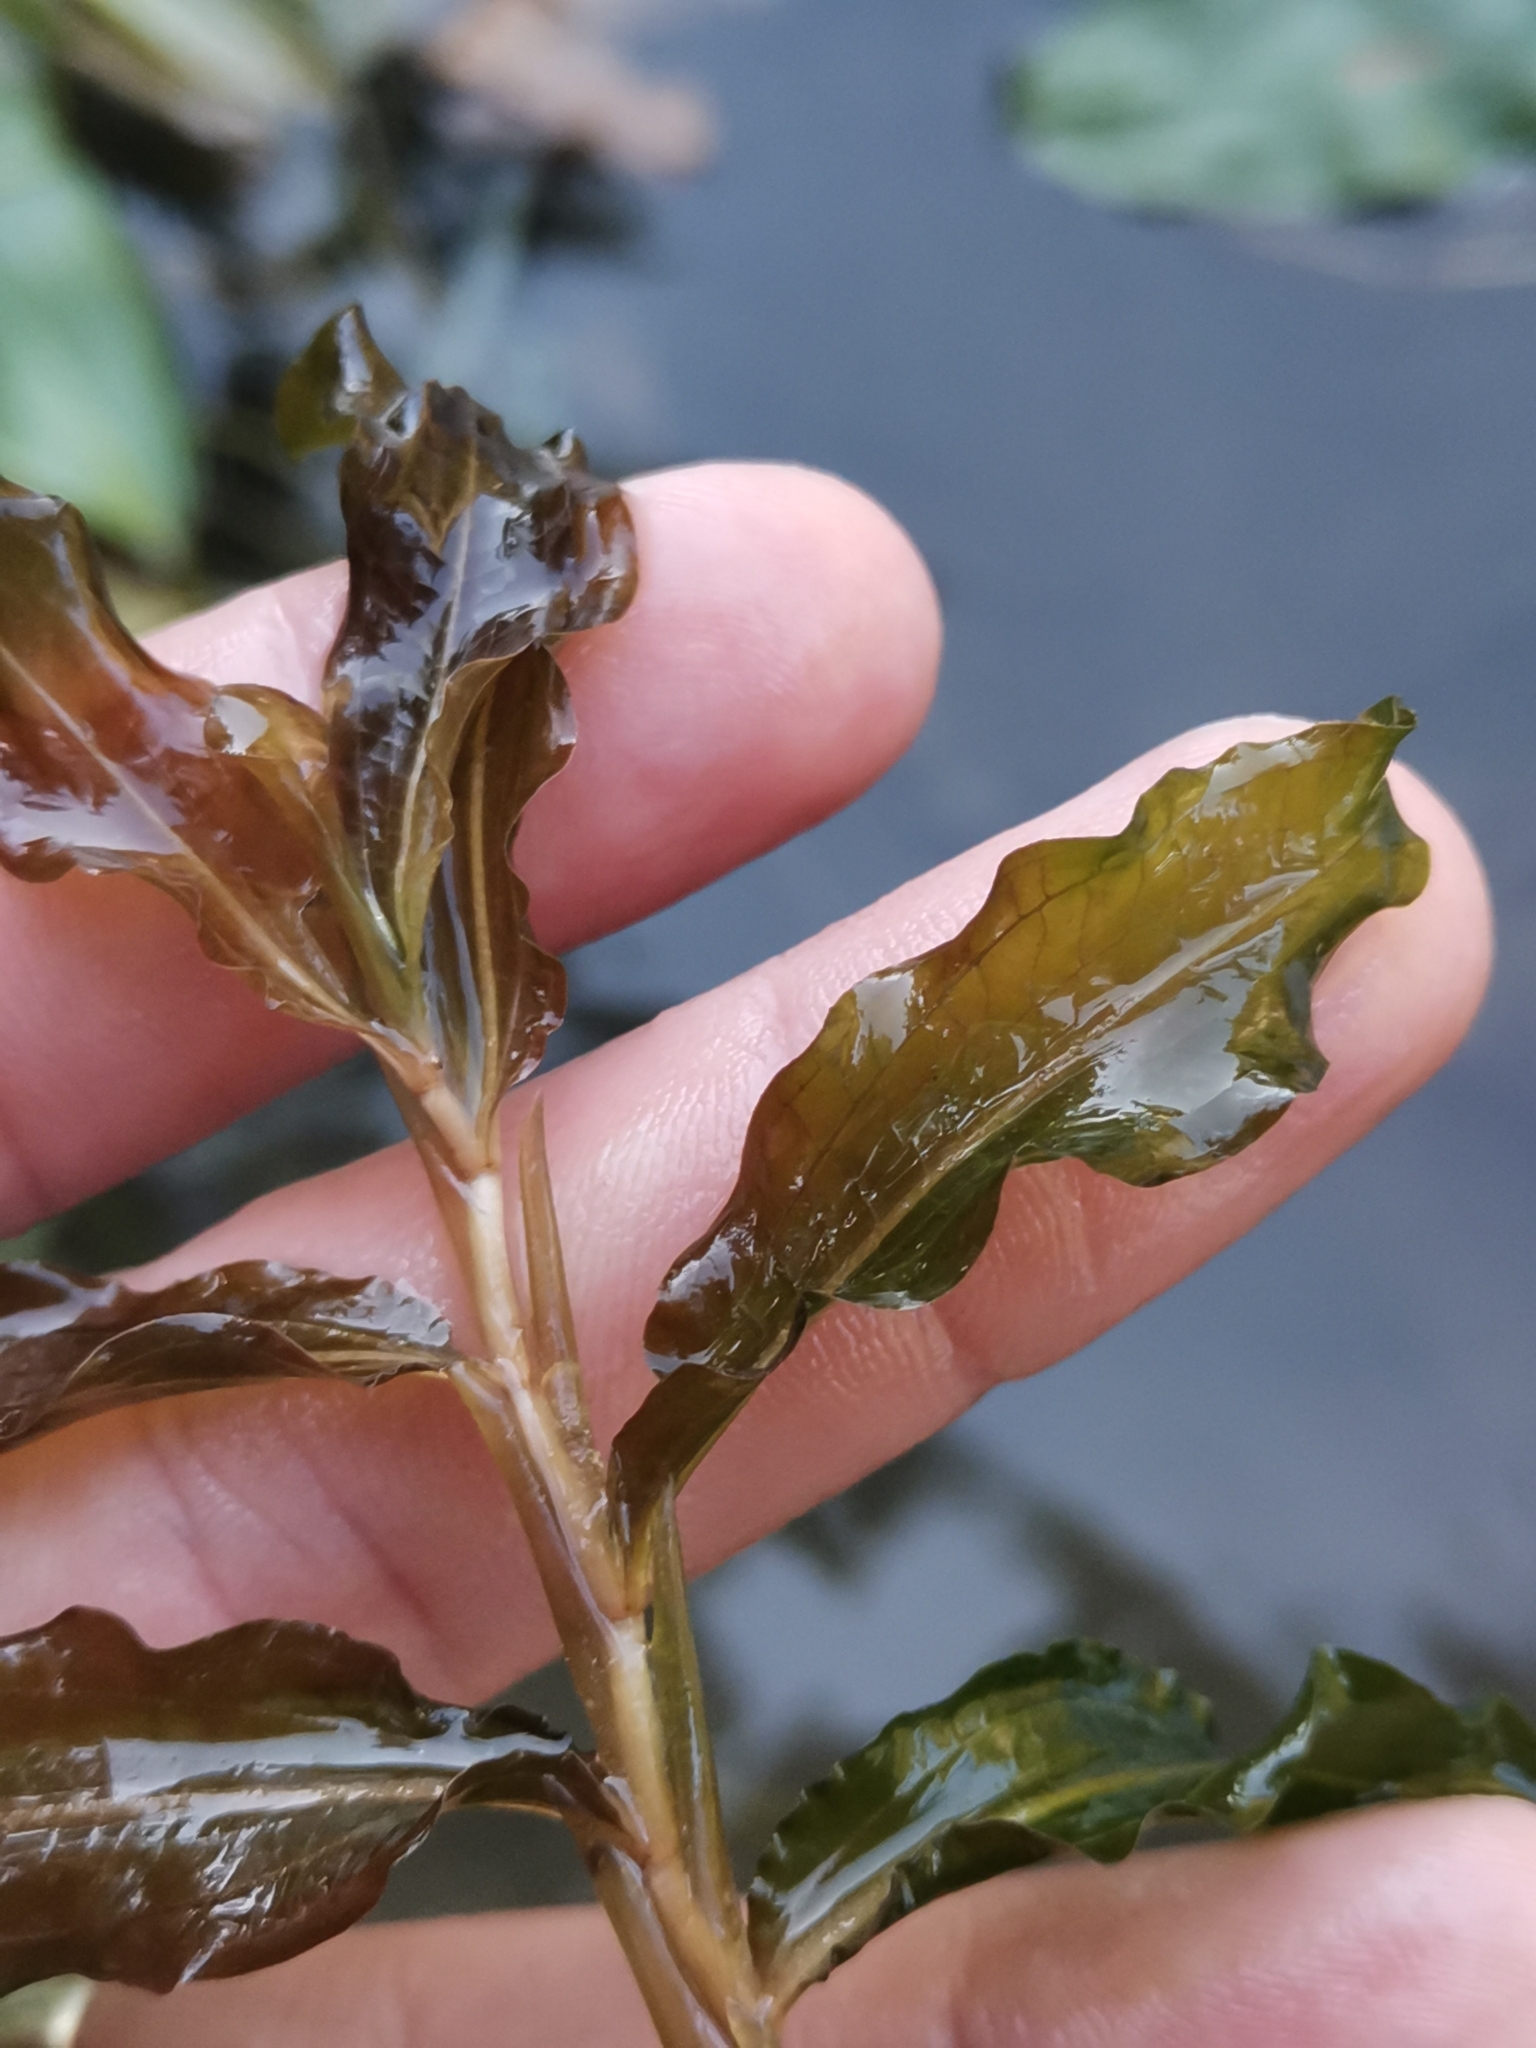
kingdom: Plantae
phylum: Tracheophyta
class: Liliopsida
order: Alismatales
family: Potamogetonaceae
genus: Potamogeton
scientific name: Potamogeton crispus
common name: Curled pondweed
